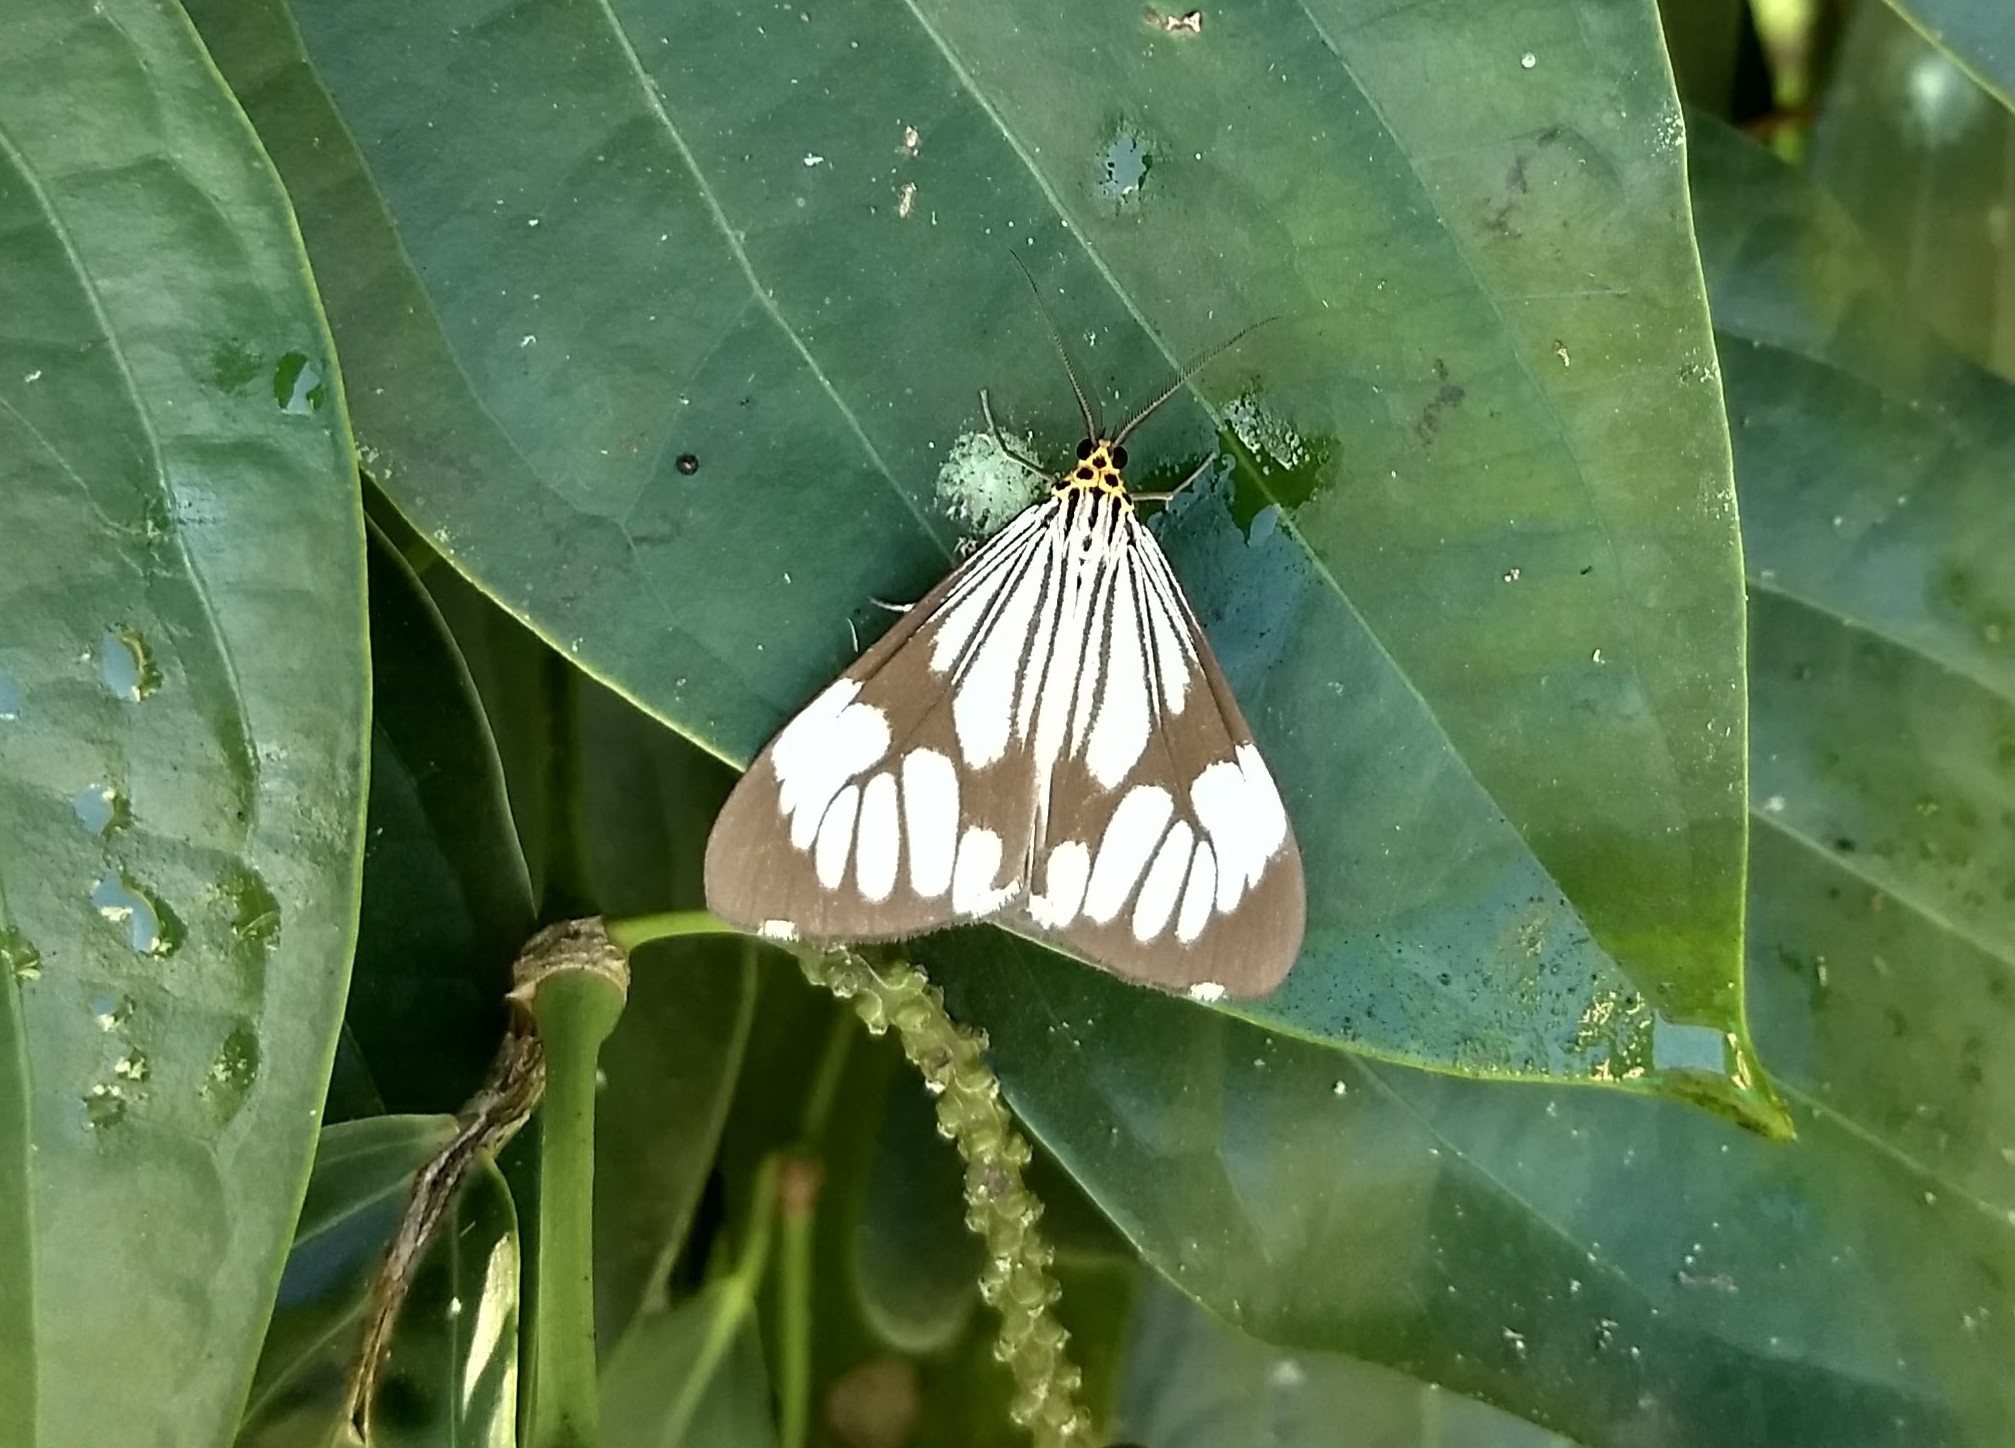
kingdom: Animalia
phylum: Arthropoda
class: Insecta
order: Lepidoptera
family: Erebidae
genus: Nyctemera
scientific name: Nyctemera coleta
